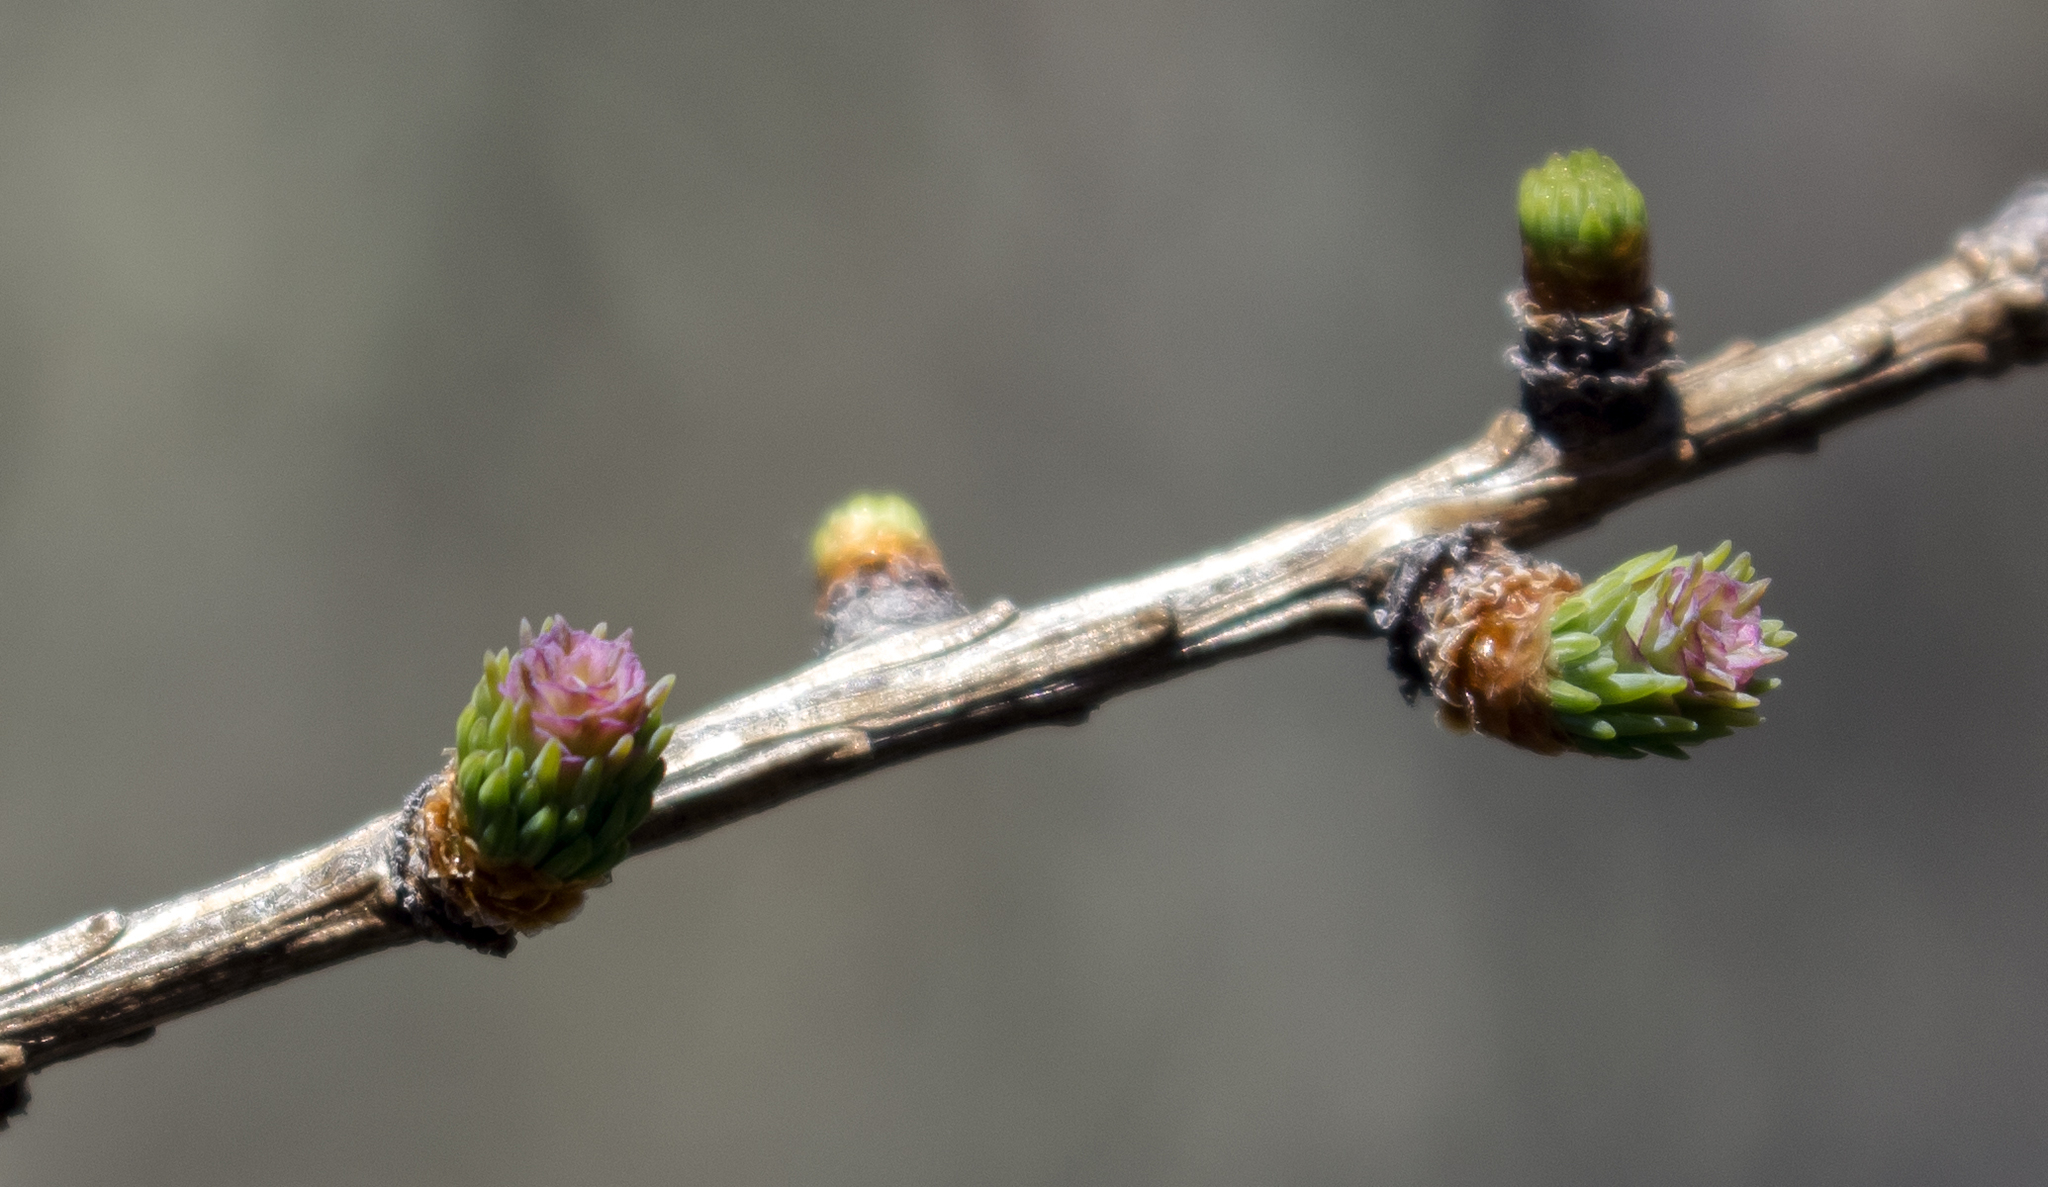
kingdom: Plantae
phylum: Tracheophyta
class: Pinopsida
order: Pinales
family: Pinaceae
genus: Larix
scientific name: Larix laricina
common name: American larch
